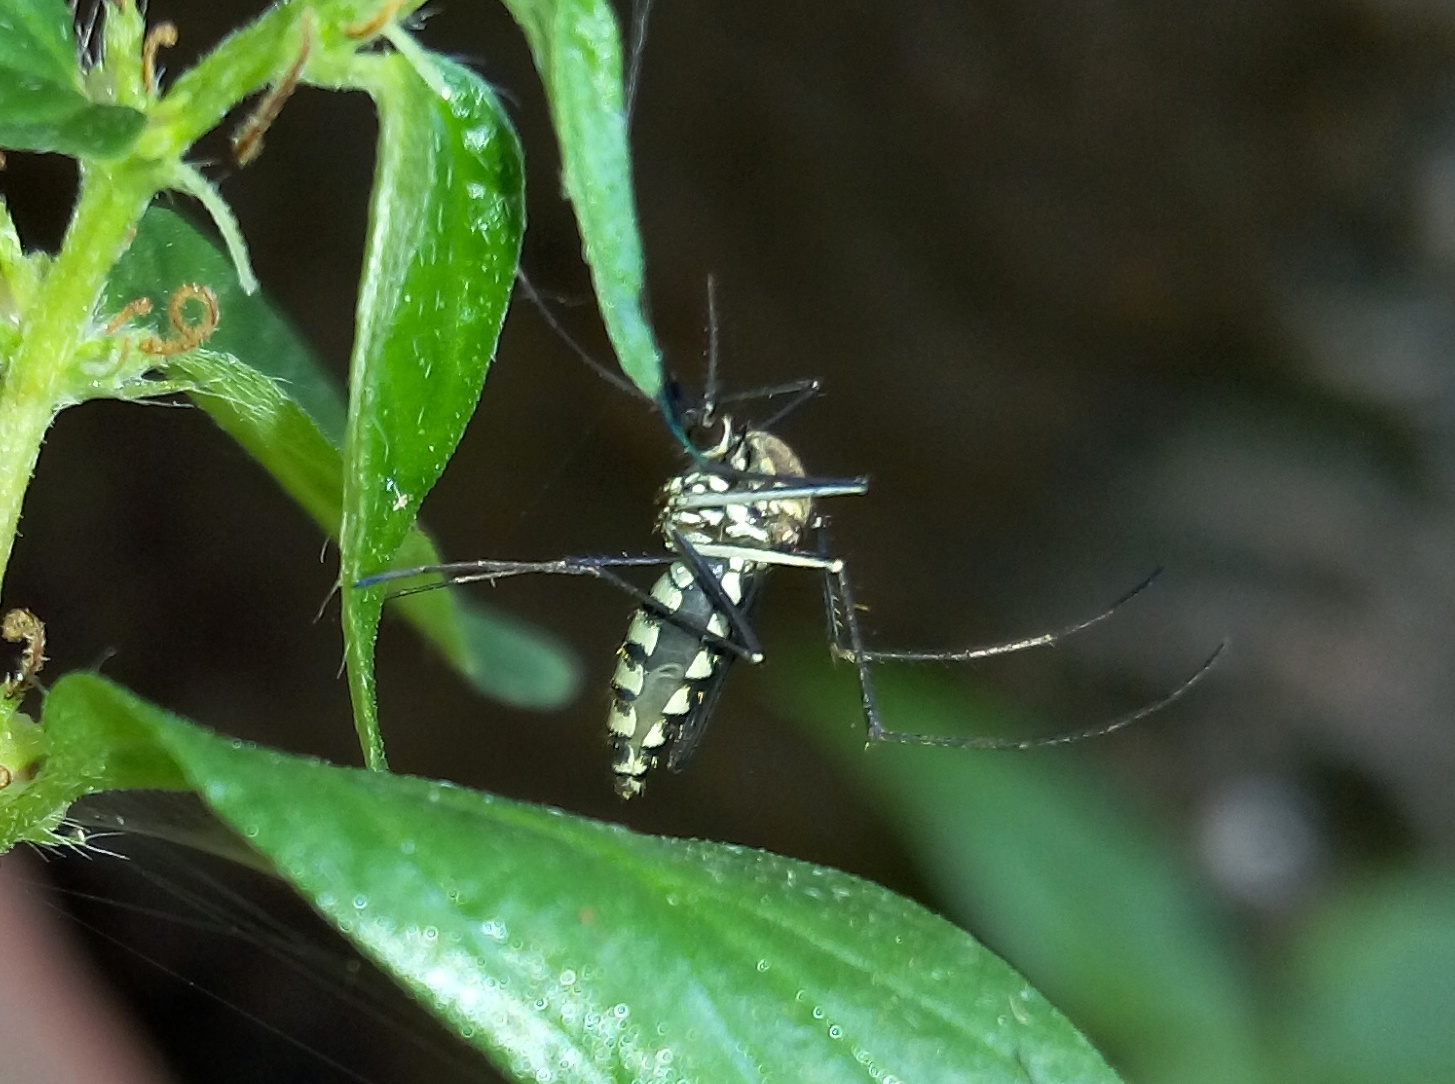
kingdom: Animalia
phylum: Arthropoda
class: Insecta
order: Diptera
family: Culicidae
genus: Armigeres
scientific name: Armigeres subalbatus
